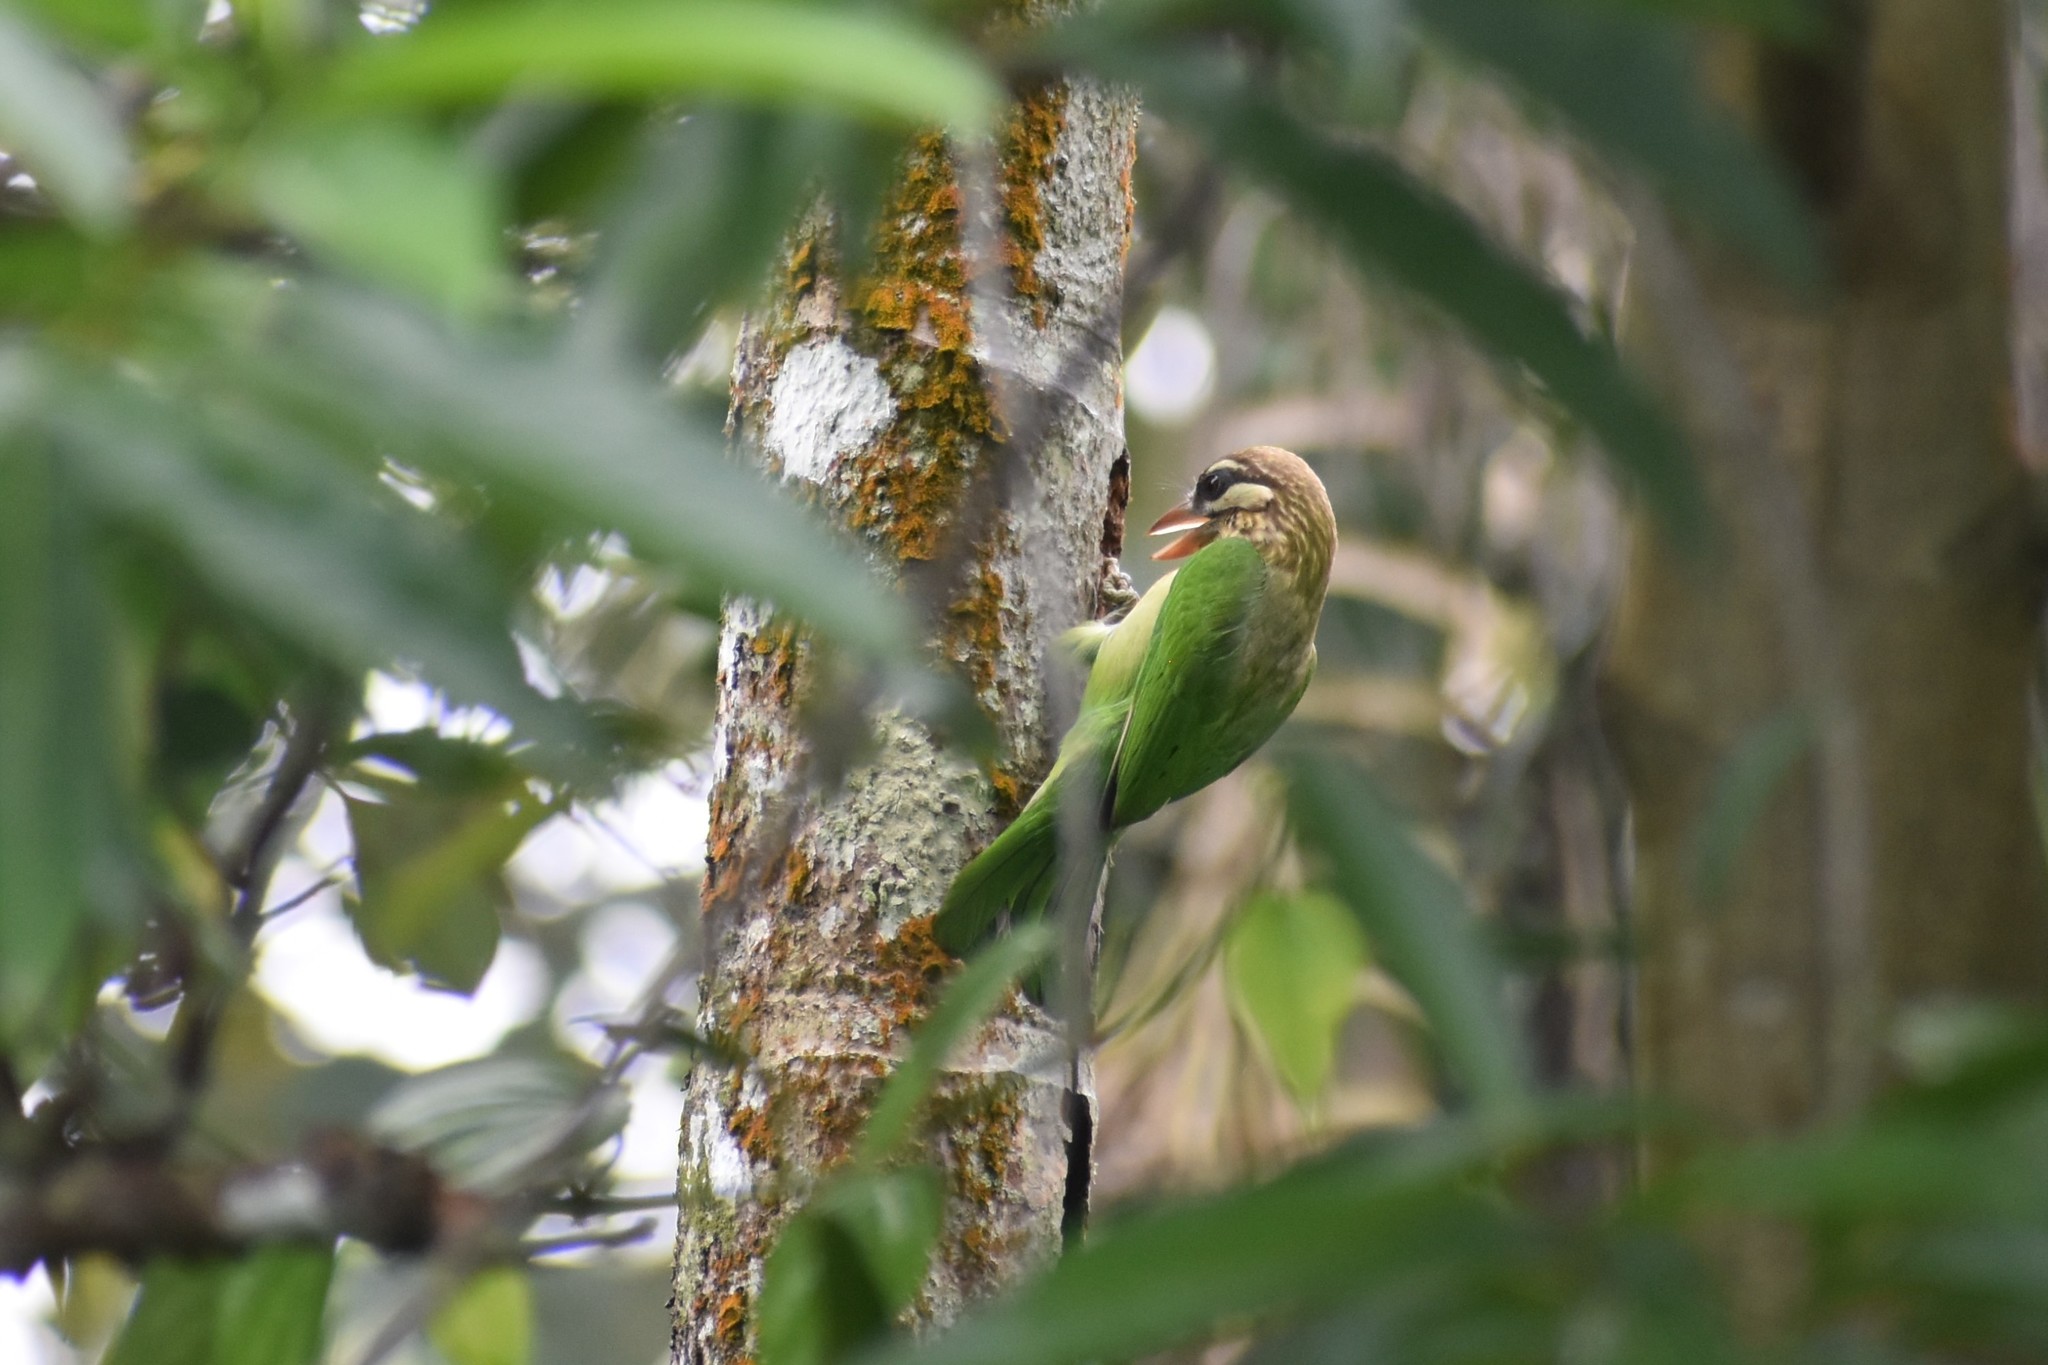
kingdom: Animalia
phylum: Chordata
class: Aves
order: Piciformes
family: Megalaimidae
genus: Psilopogon
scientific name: Psilopogon viridis
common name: White-cheeked barbet
